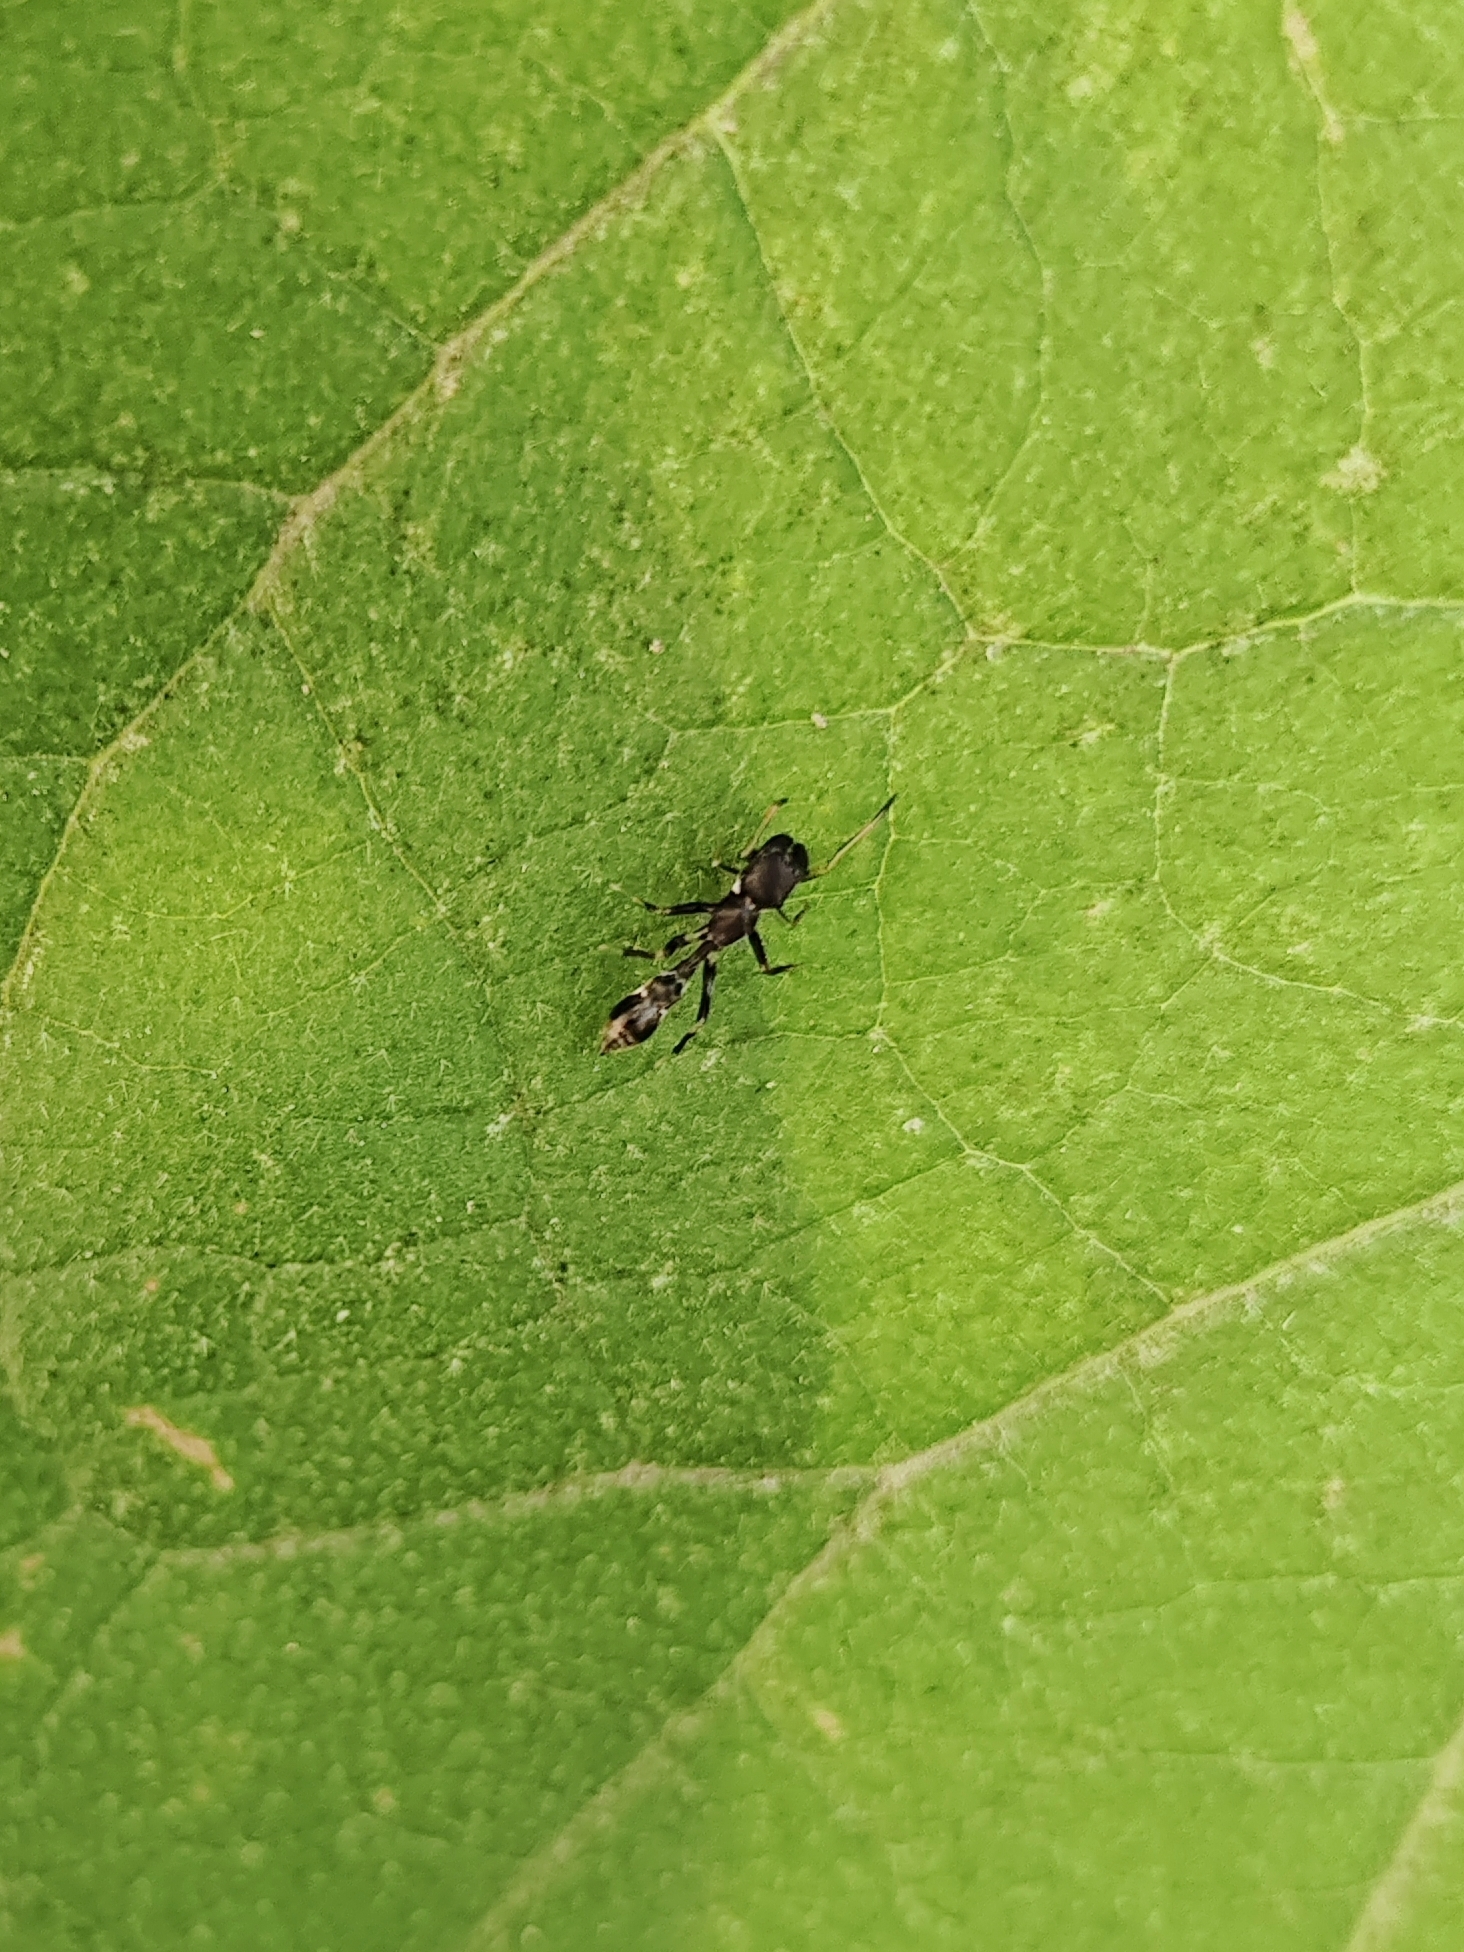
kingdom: Animalia
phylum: Arthropoda
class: Arachnida
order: Araneae
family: Salticidae
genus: Myrmarachne
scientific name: Myrmarachne melanocephala
